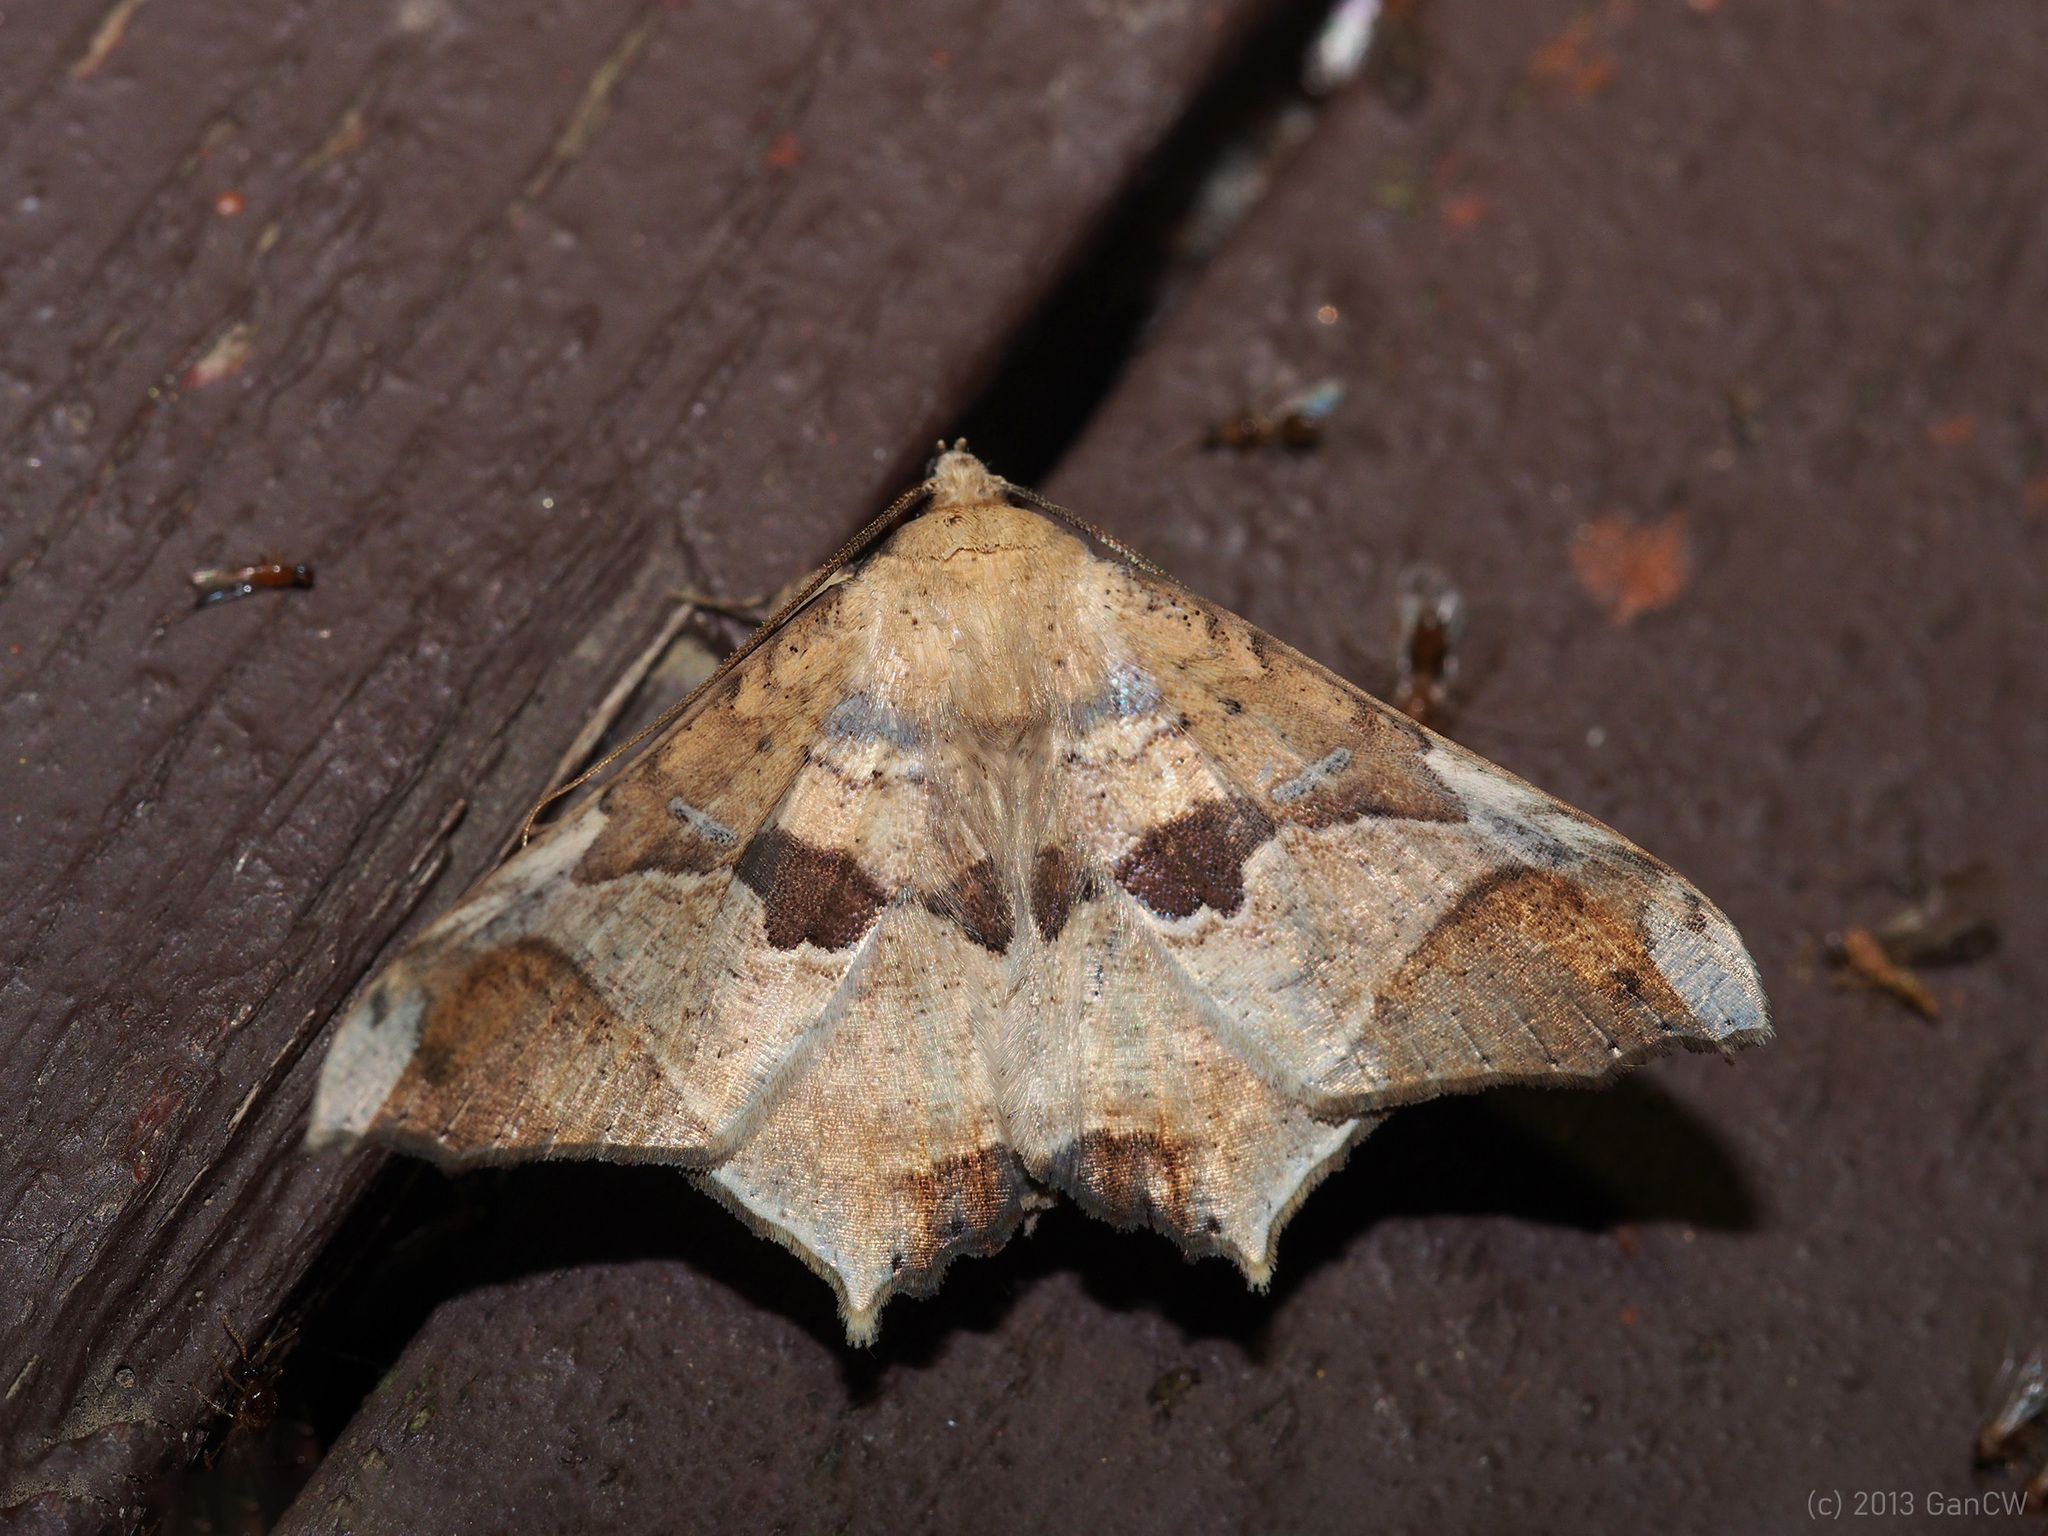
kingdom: Animalia
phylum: Arthropoda
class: Insecta
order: Lepidoptera
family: Erebidae
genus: Semiothisops
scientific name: Semiothisops macariata
